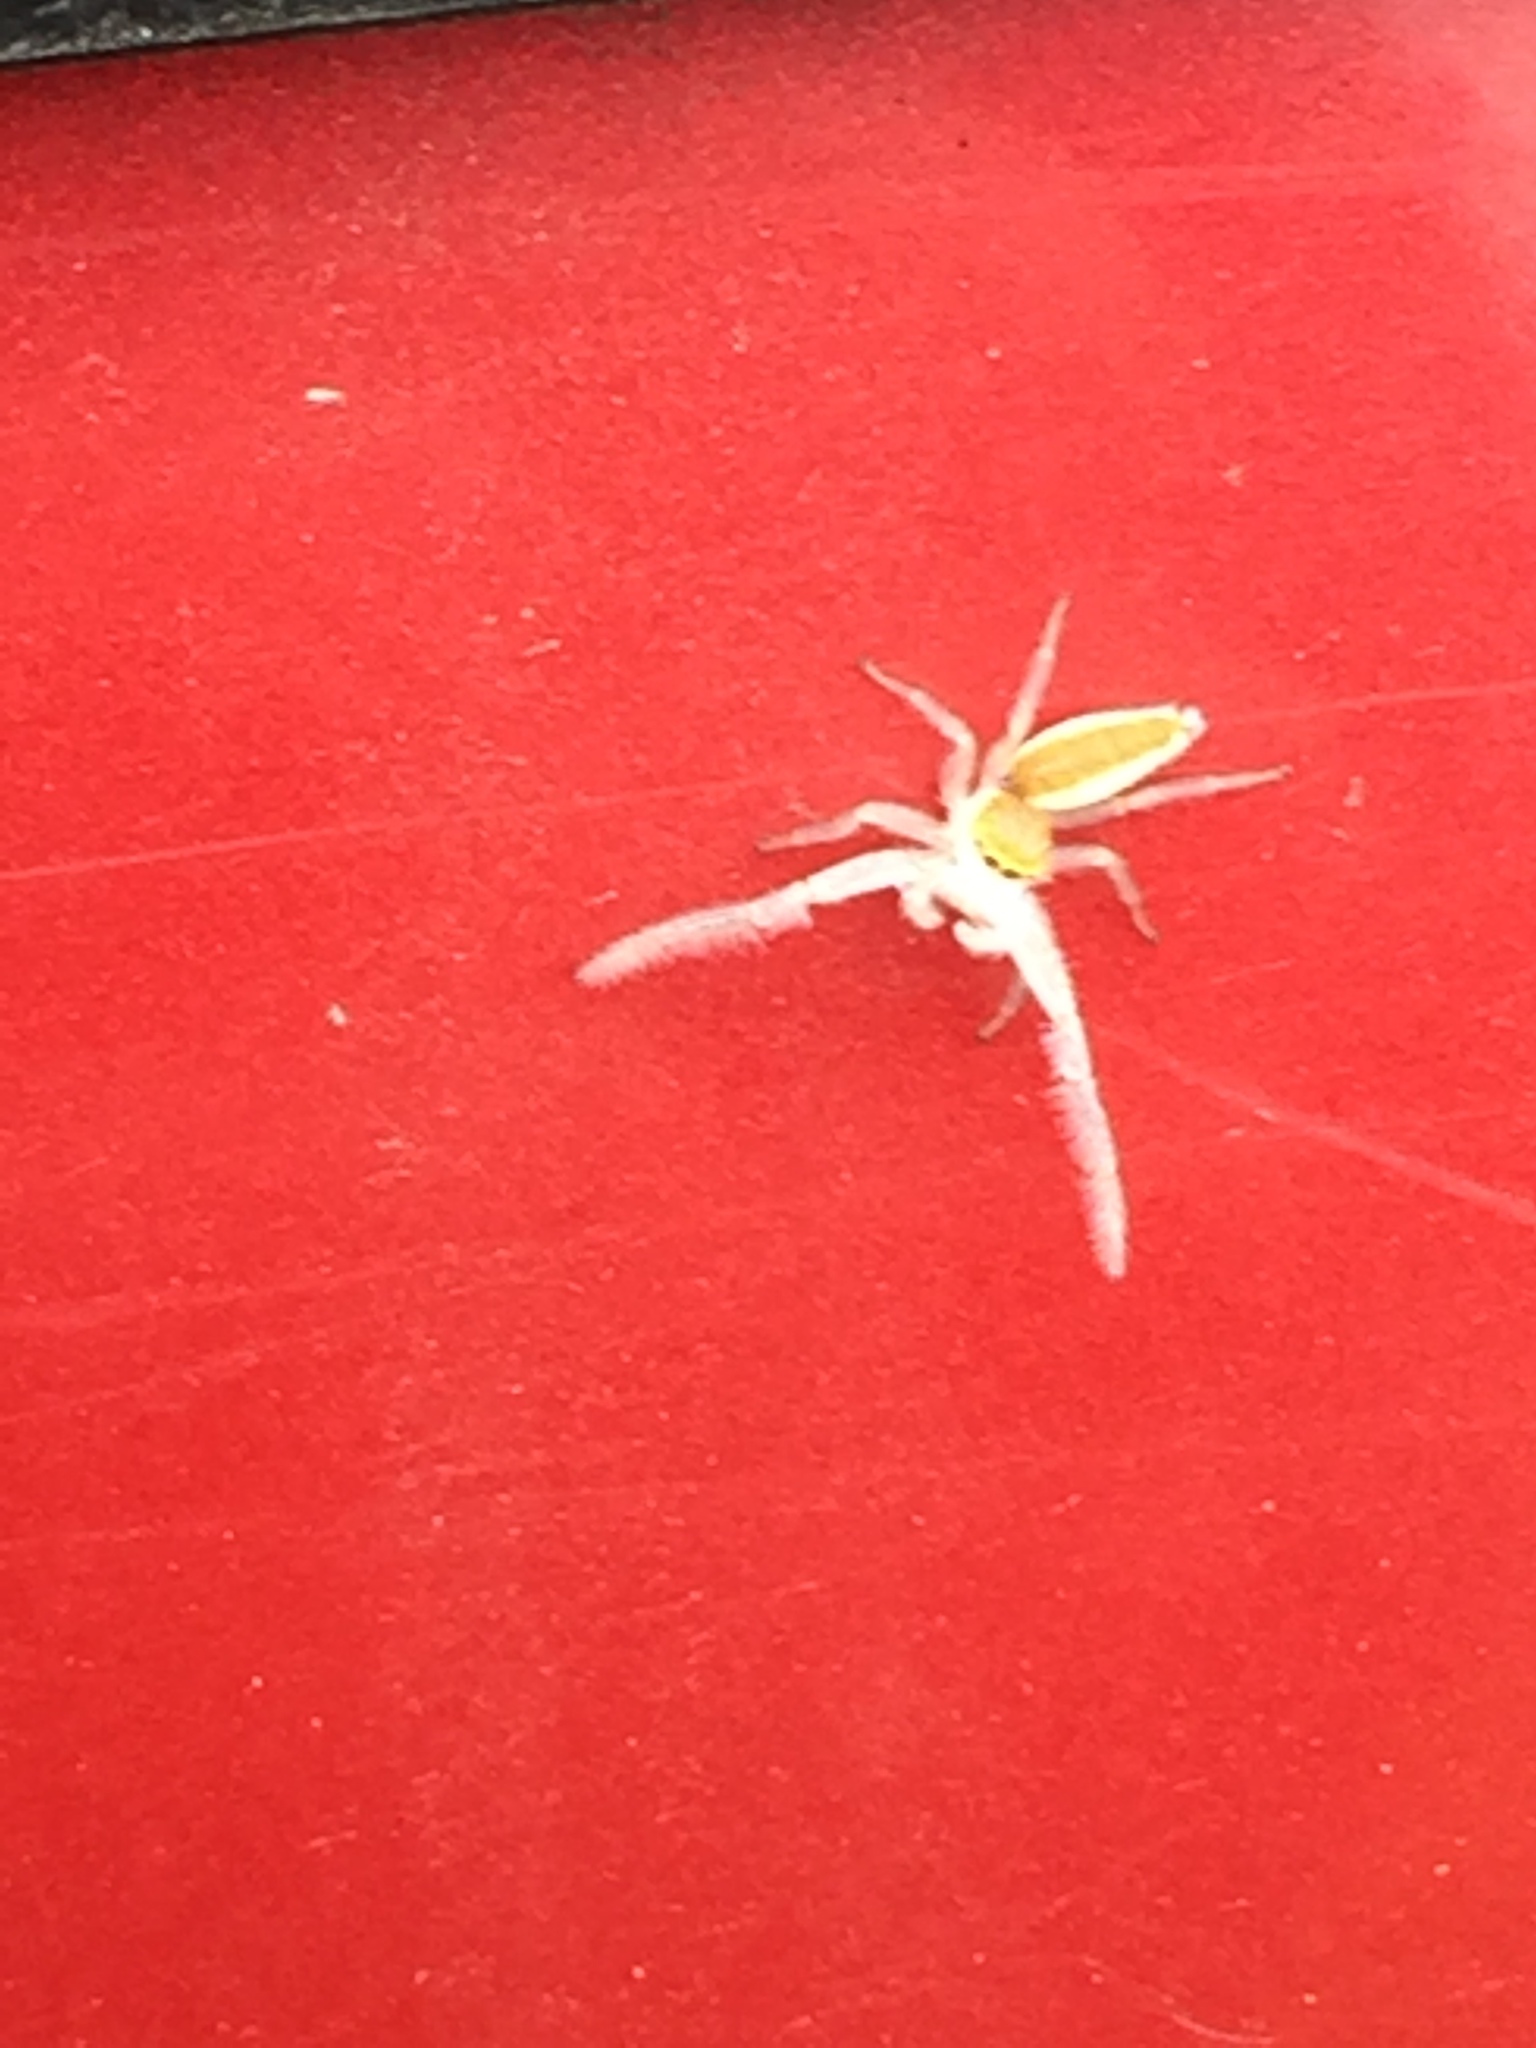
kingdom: Animalia
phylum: Arthropoda
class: Arachnida
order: Araneae
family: Salticidae
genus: Hentzia
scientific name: Hentzia mitrata
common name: White-jawed jumping spider
